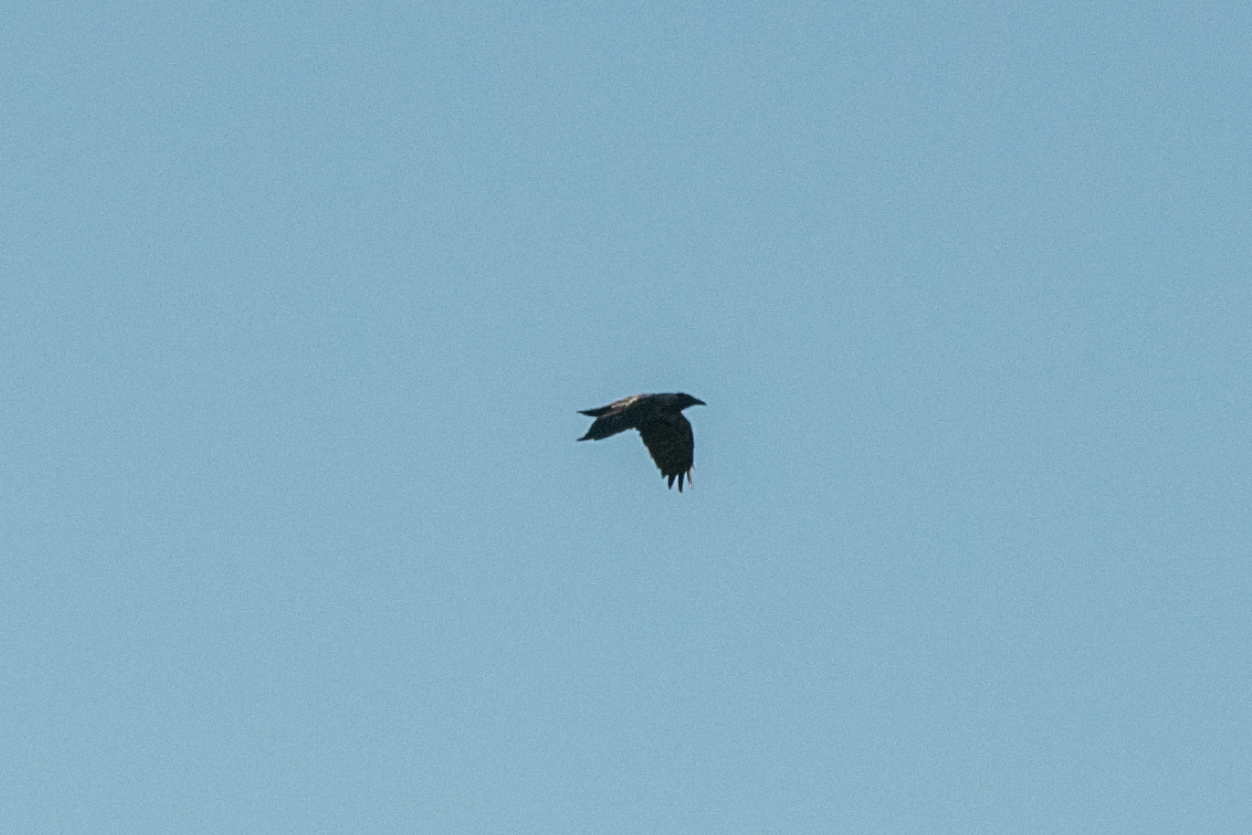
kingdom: Animalia
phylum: Chordata
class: Aves
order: Passeriformes
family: Corvidae
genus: Corvus
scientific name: Corvus corax
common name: Common raven
